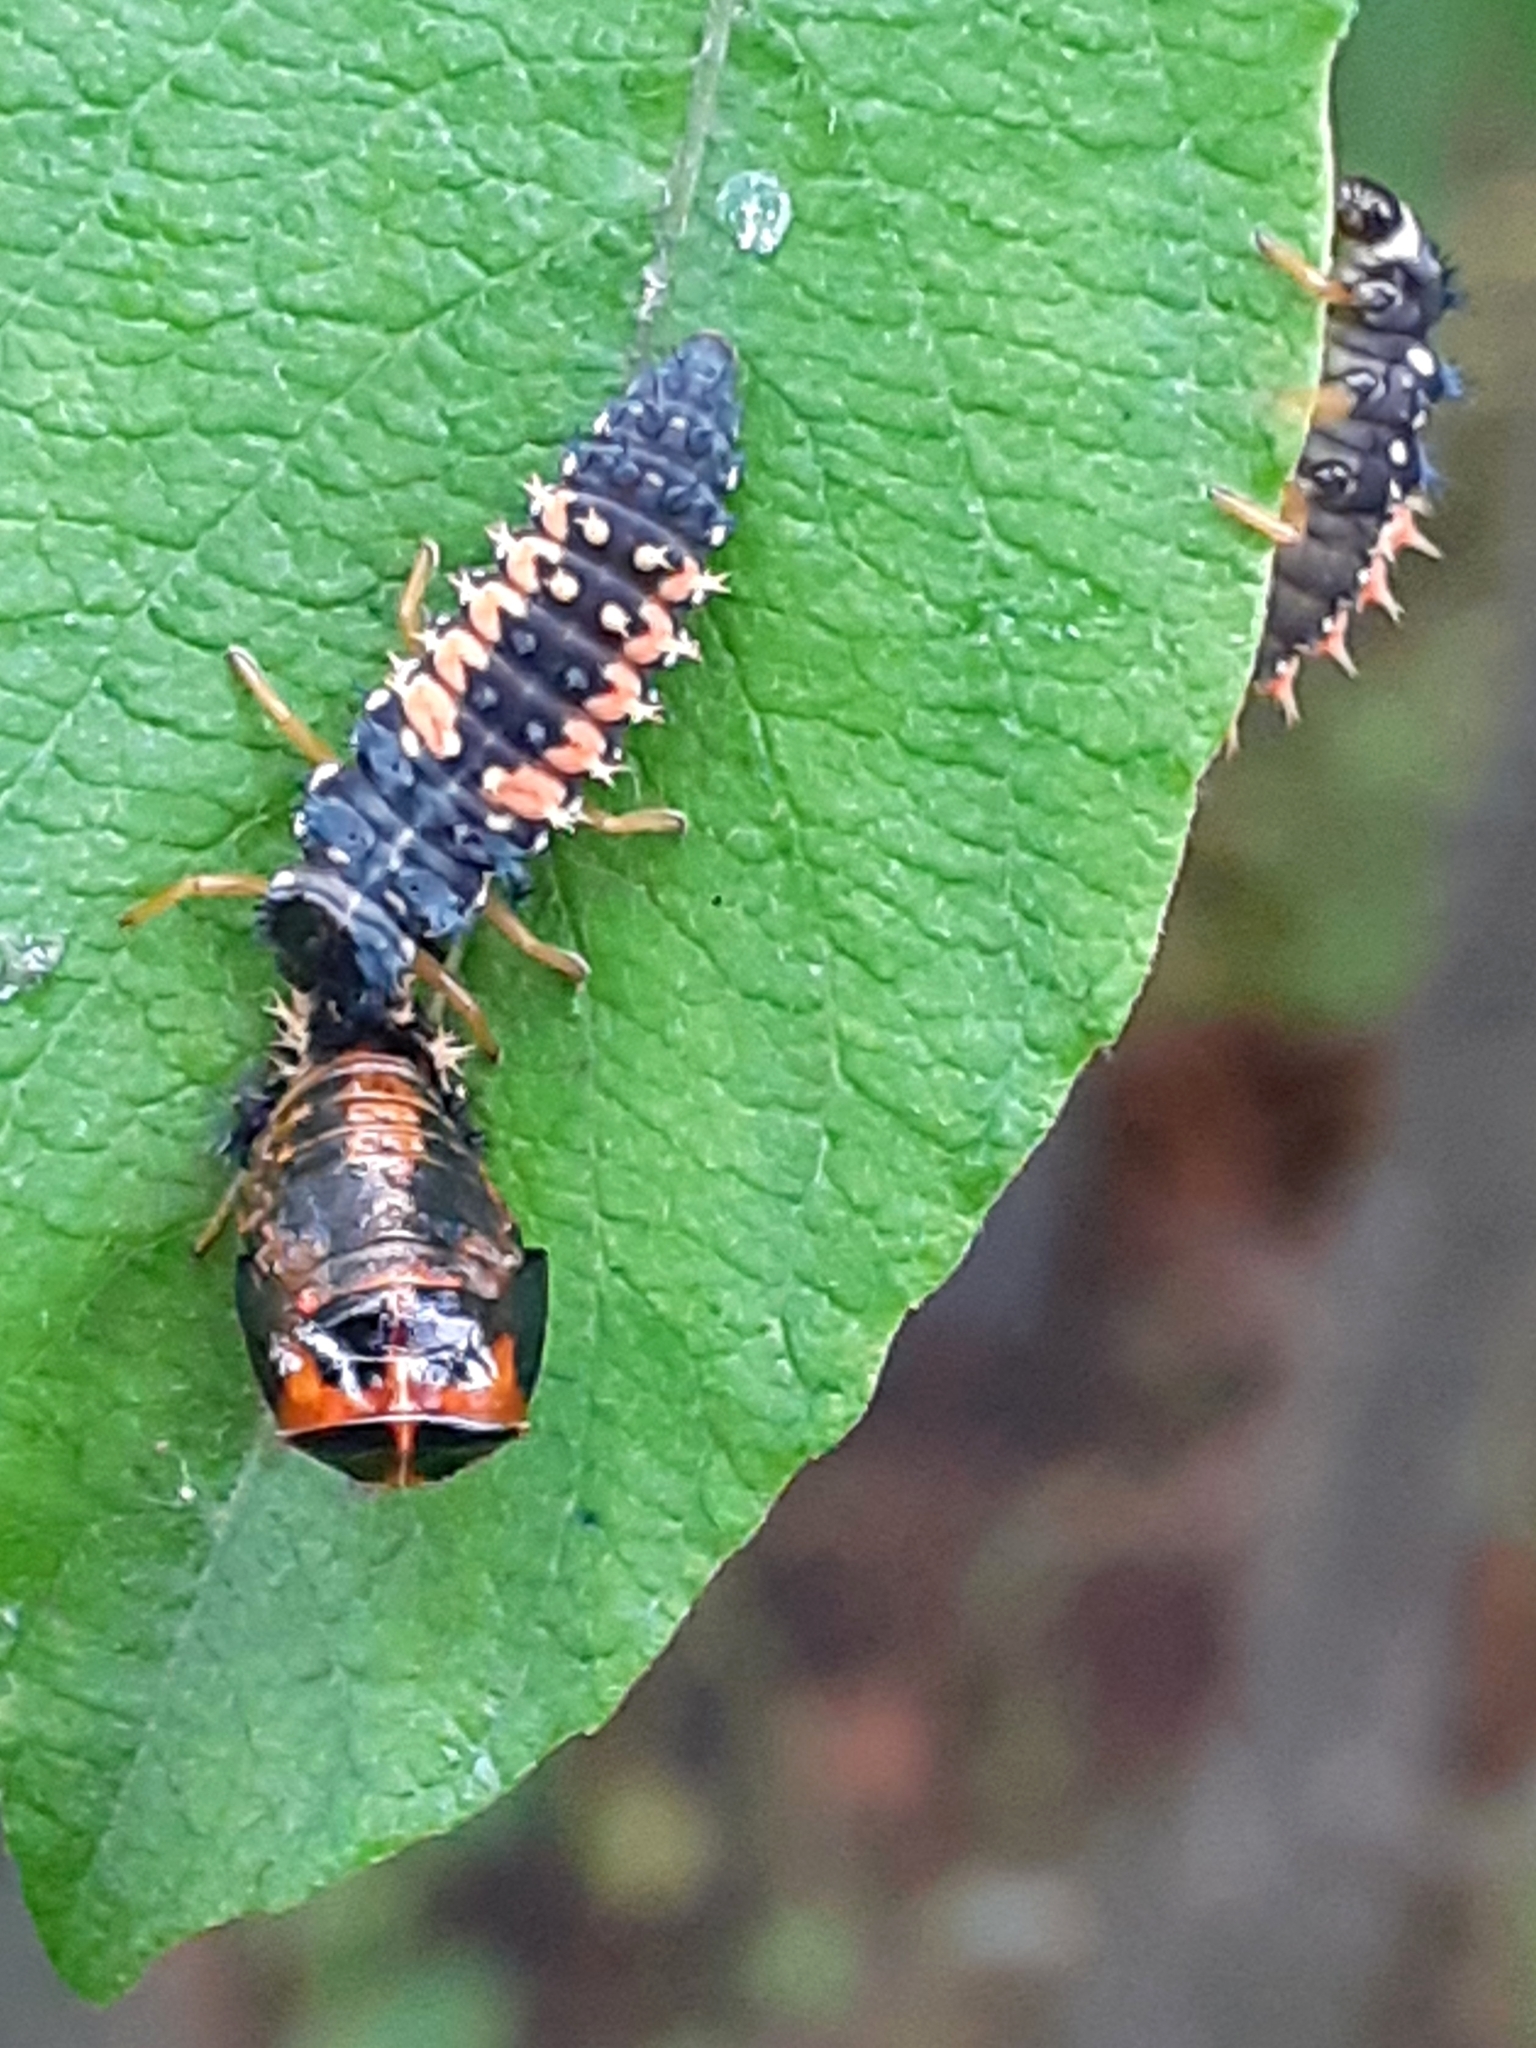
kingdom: Animalia
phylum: Arthropoda
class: Insecta
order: Coleoptera
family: Coccinellidae
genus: Harmonia
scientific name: Harmonia axyridis
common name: Harlequin ladybird
